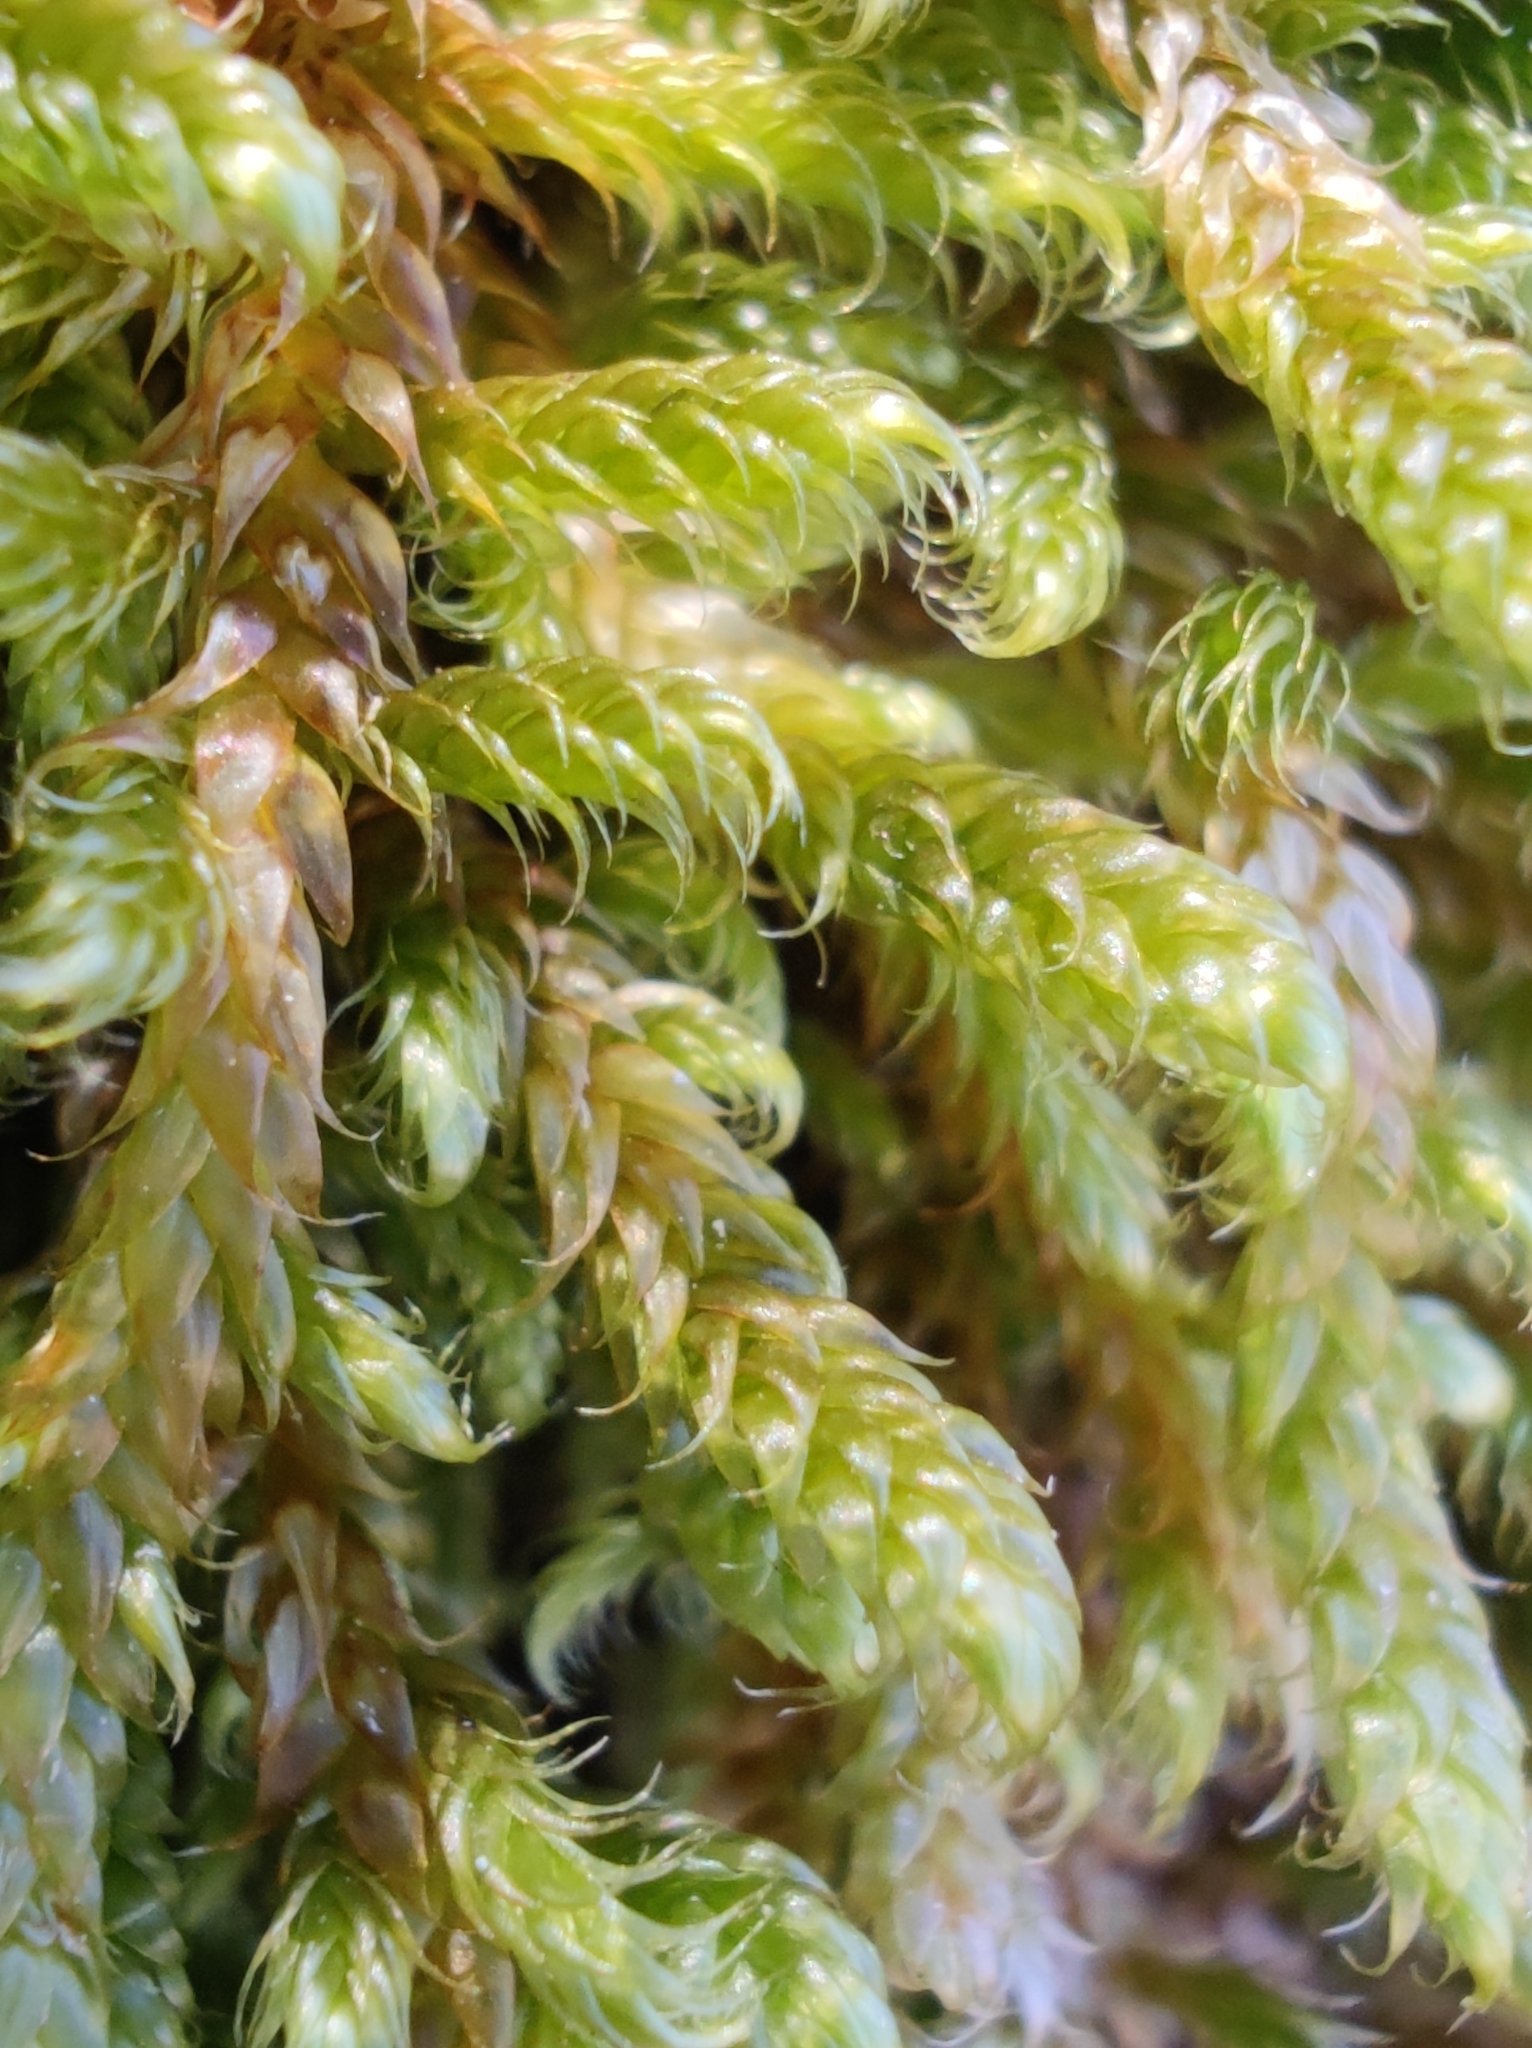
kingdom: Plantae
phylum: Bryophyta
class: Bryopsida
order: Hypnales
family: Hypnaceae
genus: Hypnum
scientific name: Hypnum cupressiforme
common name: Cypress-leaved plait-moss
